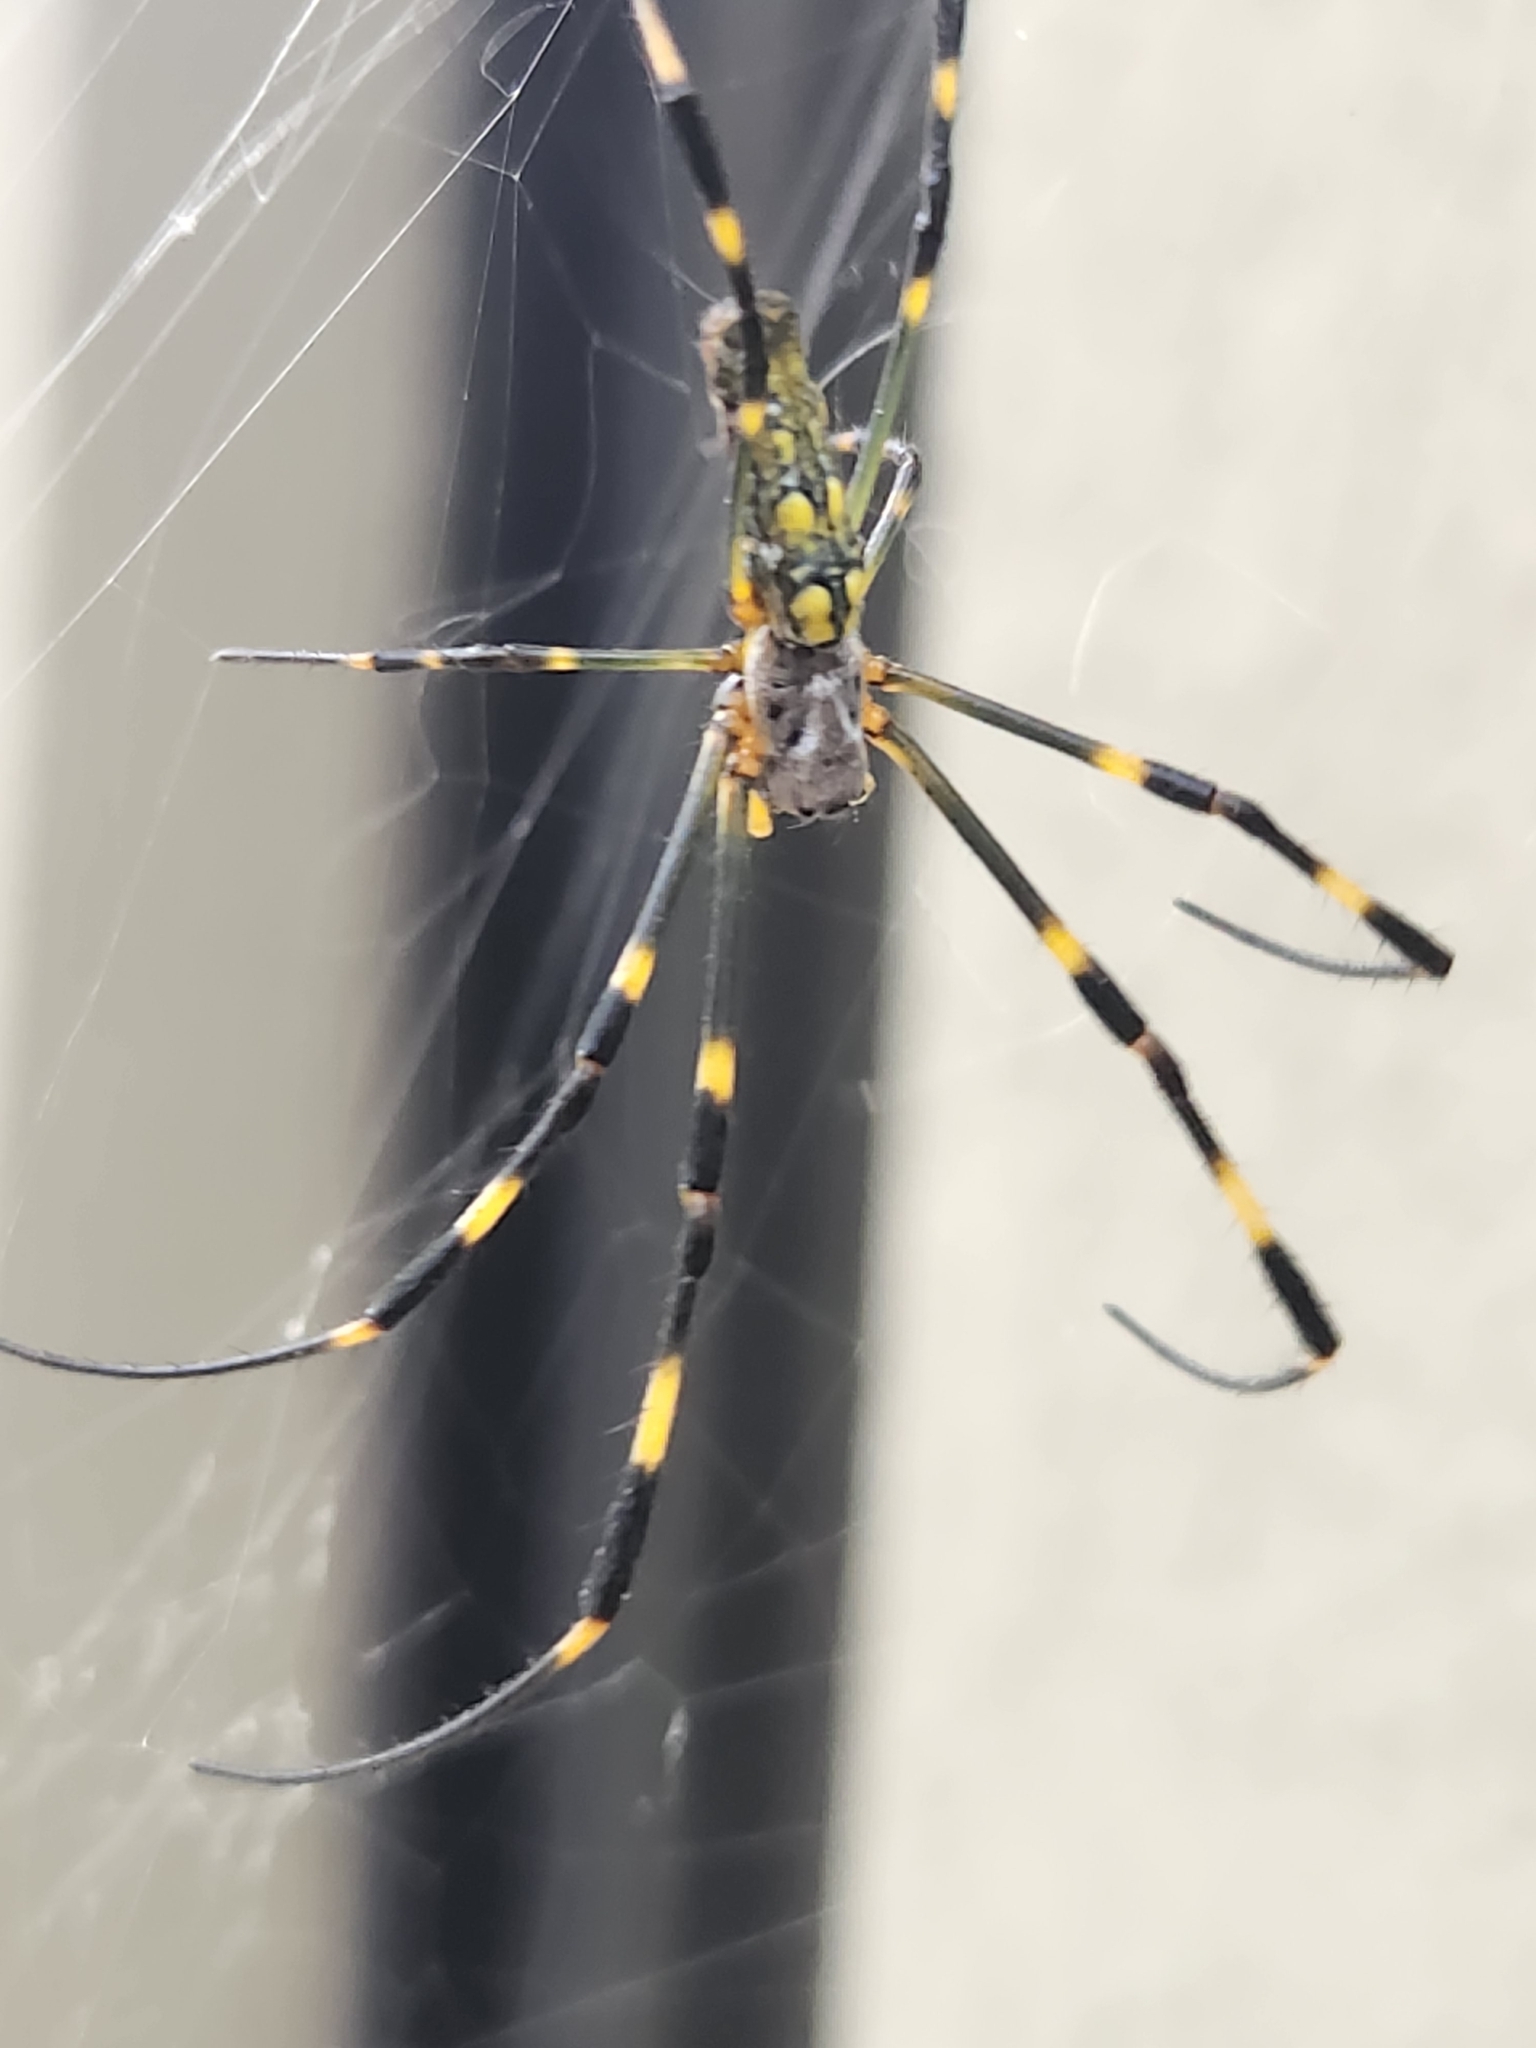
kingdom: Animalia
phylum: Arthropoda
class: Arachnida
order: Araneae
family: Araneidae
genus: Trichonephila
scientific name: Trichonephila clavata
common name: Jorō spider
